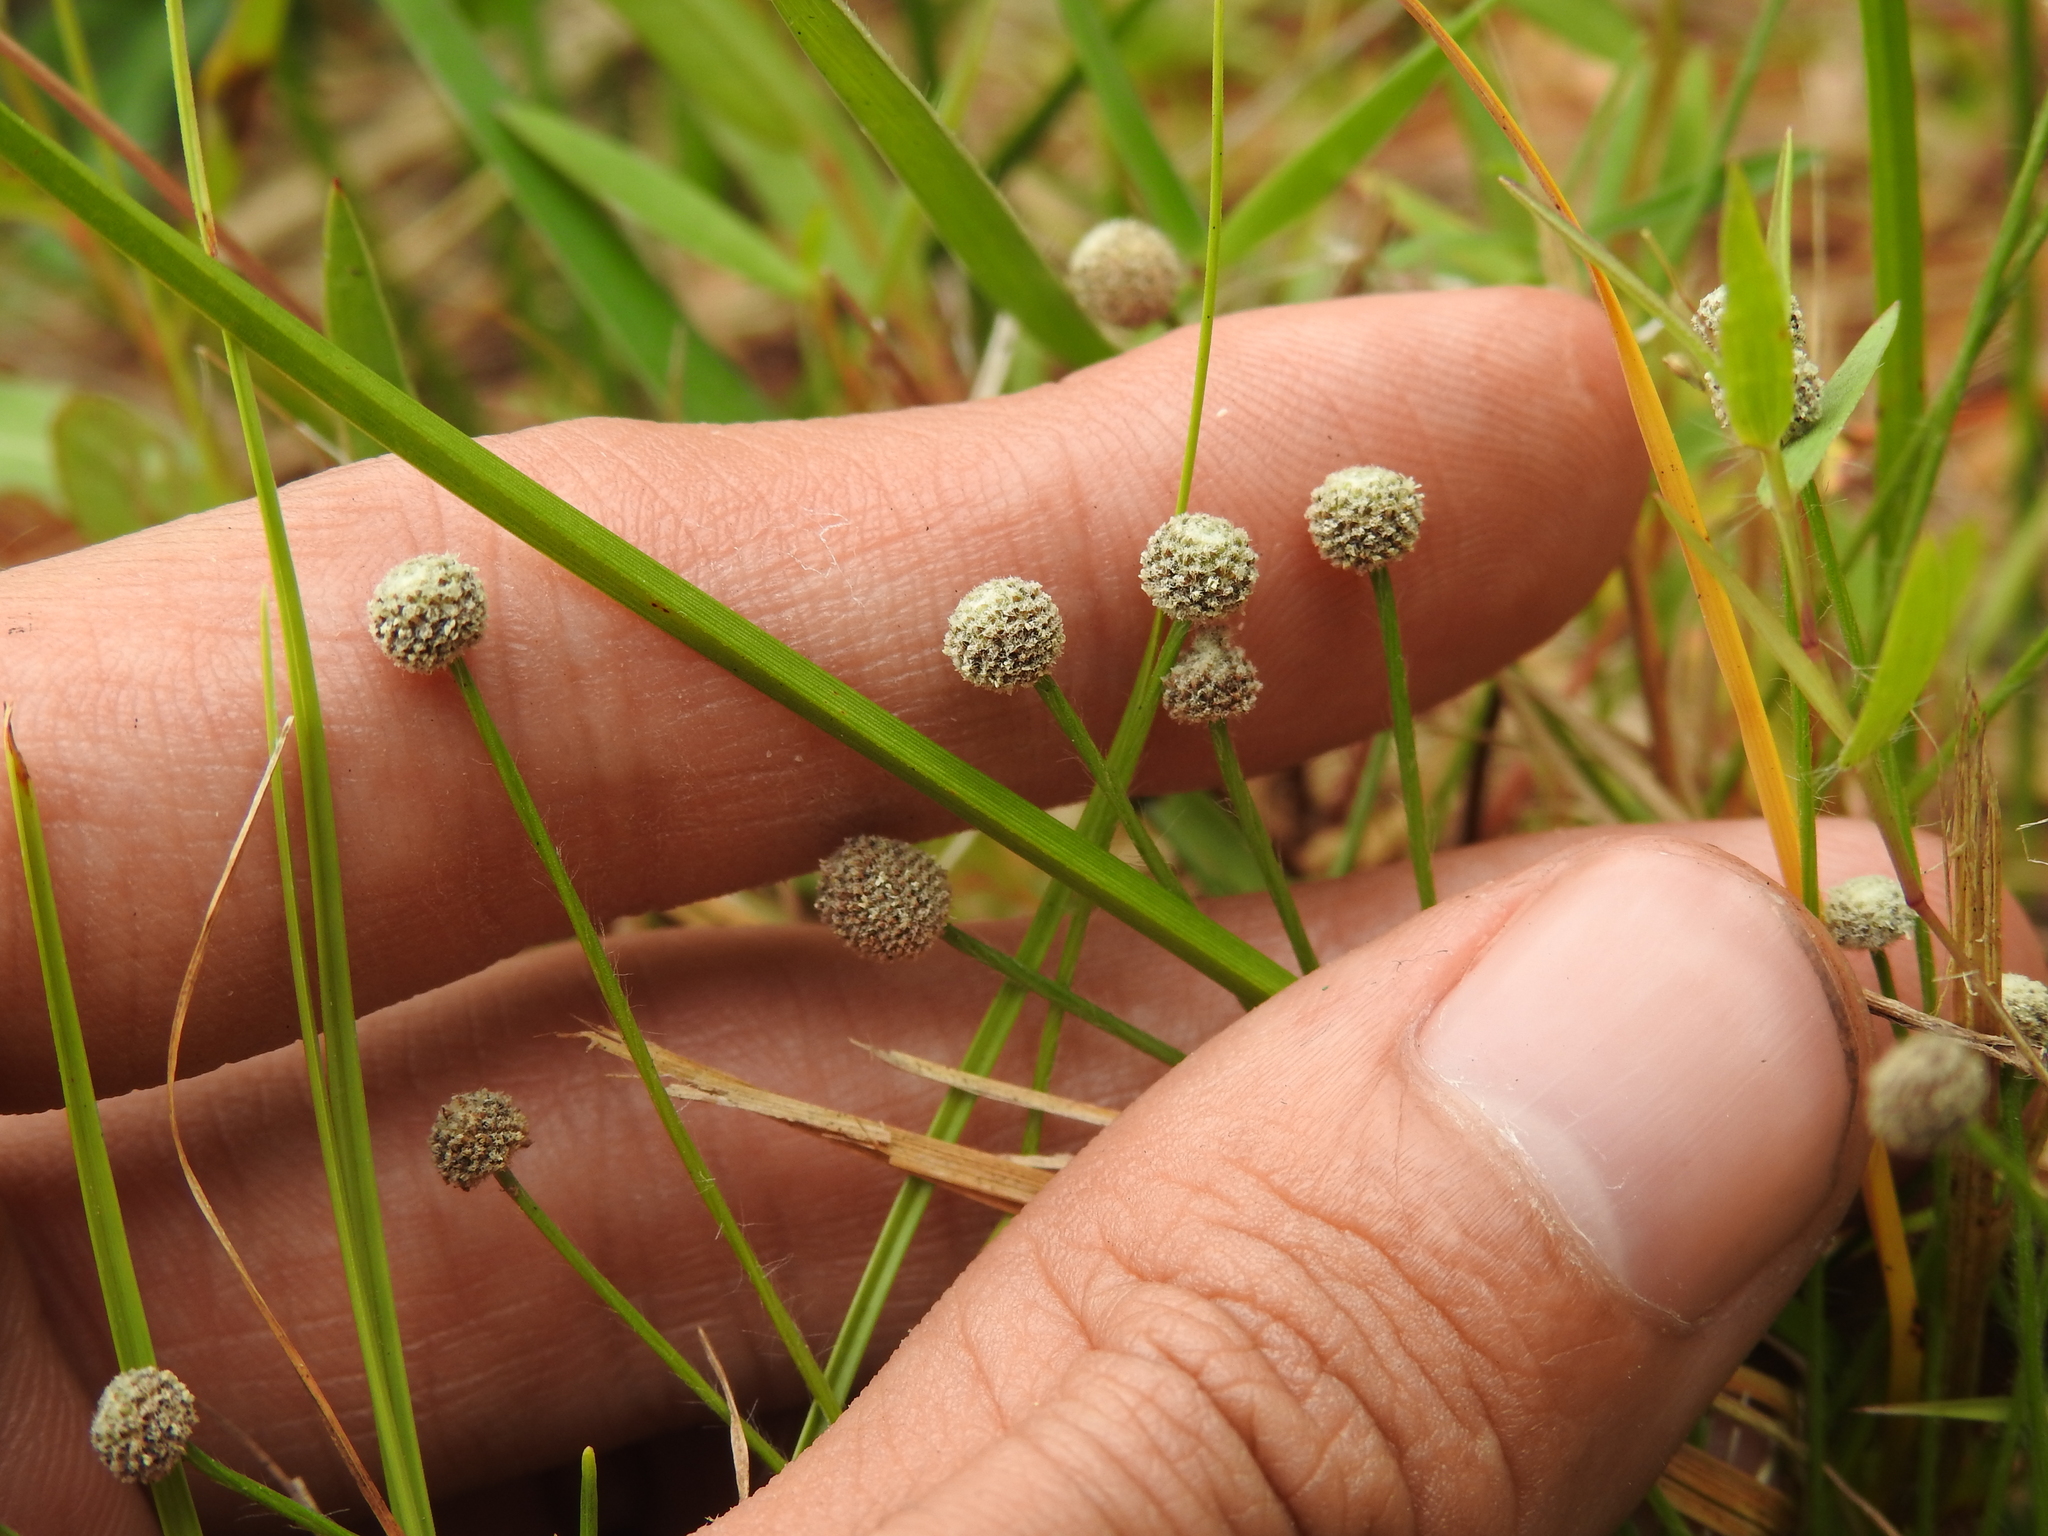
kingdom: Plantae
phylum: Tracheophyta
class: Liliopsida
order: Poales
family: Eriocaulaceae
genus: Paepalanthus
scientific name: Paepalanthus minus
